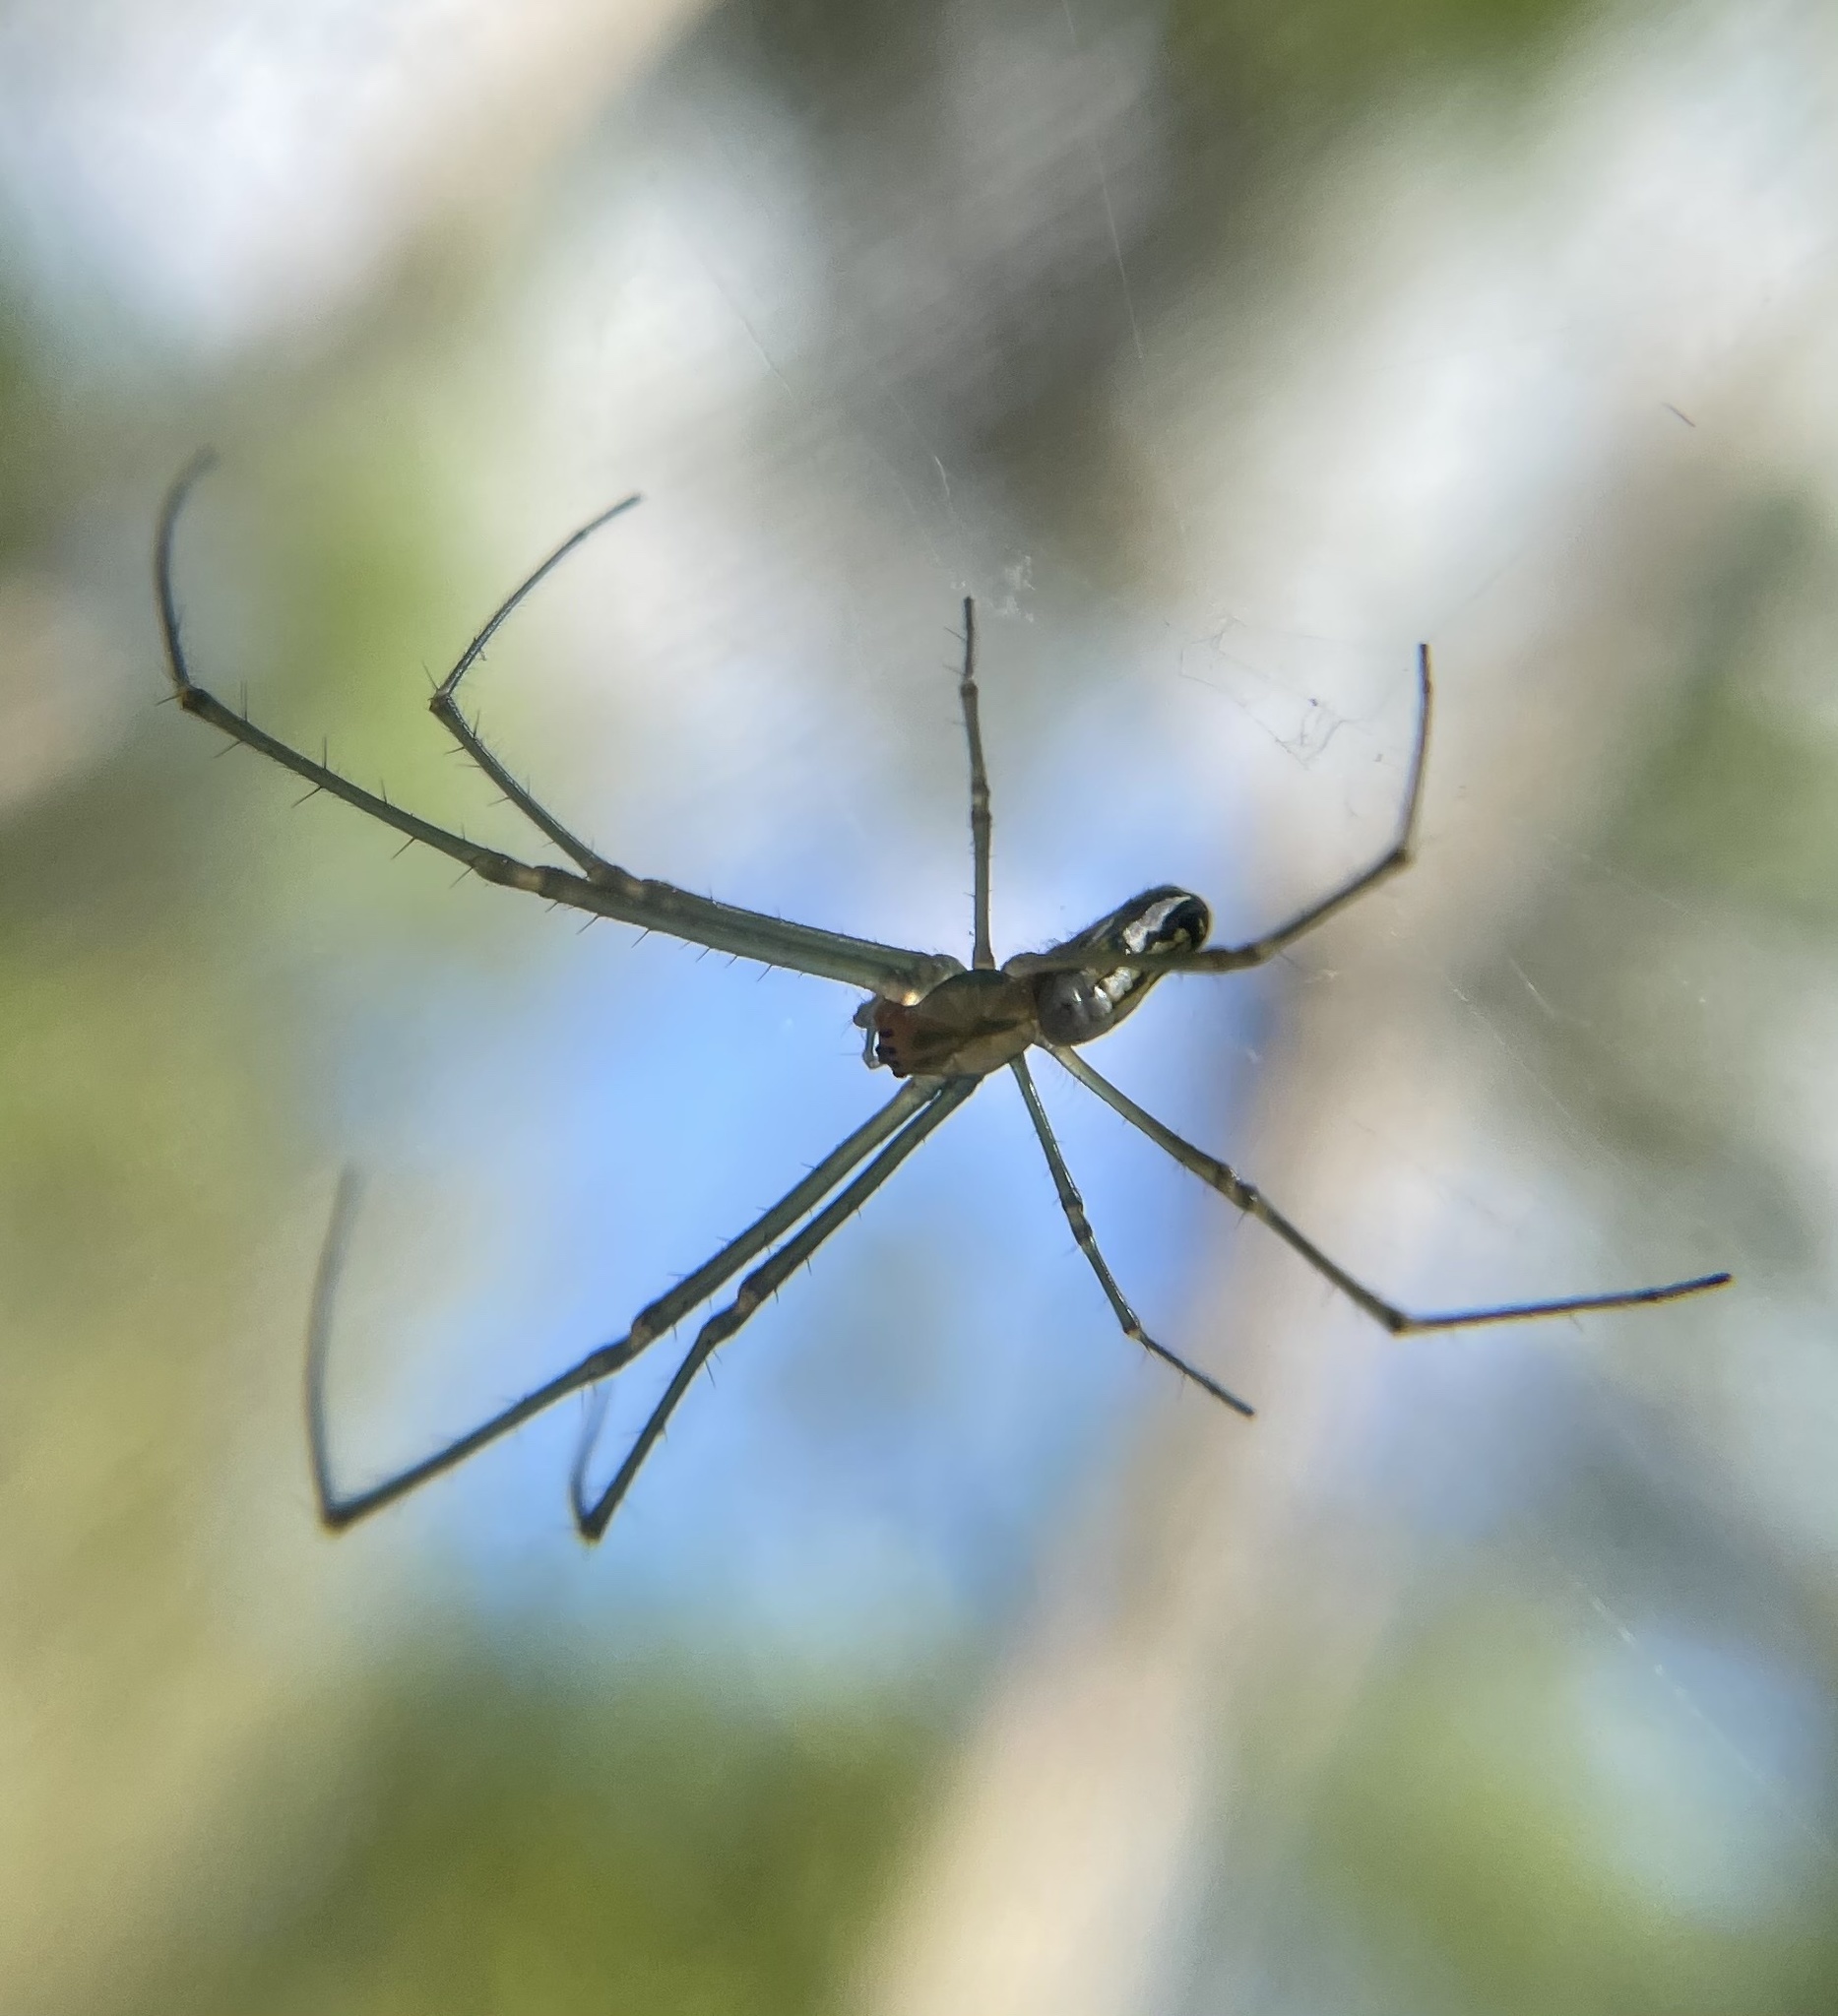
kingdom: Animalia
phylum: Arthropoda
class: Arachnida
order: Araneae
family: Tetragnathidae
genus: Leucauge
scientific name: Leucauge argyra
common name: Longjawed orb weavers
